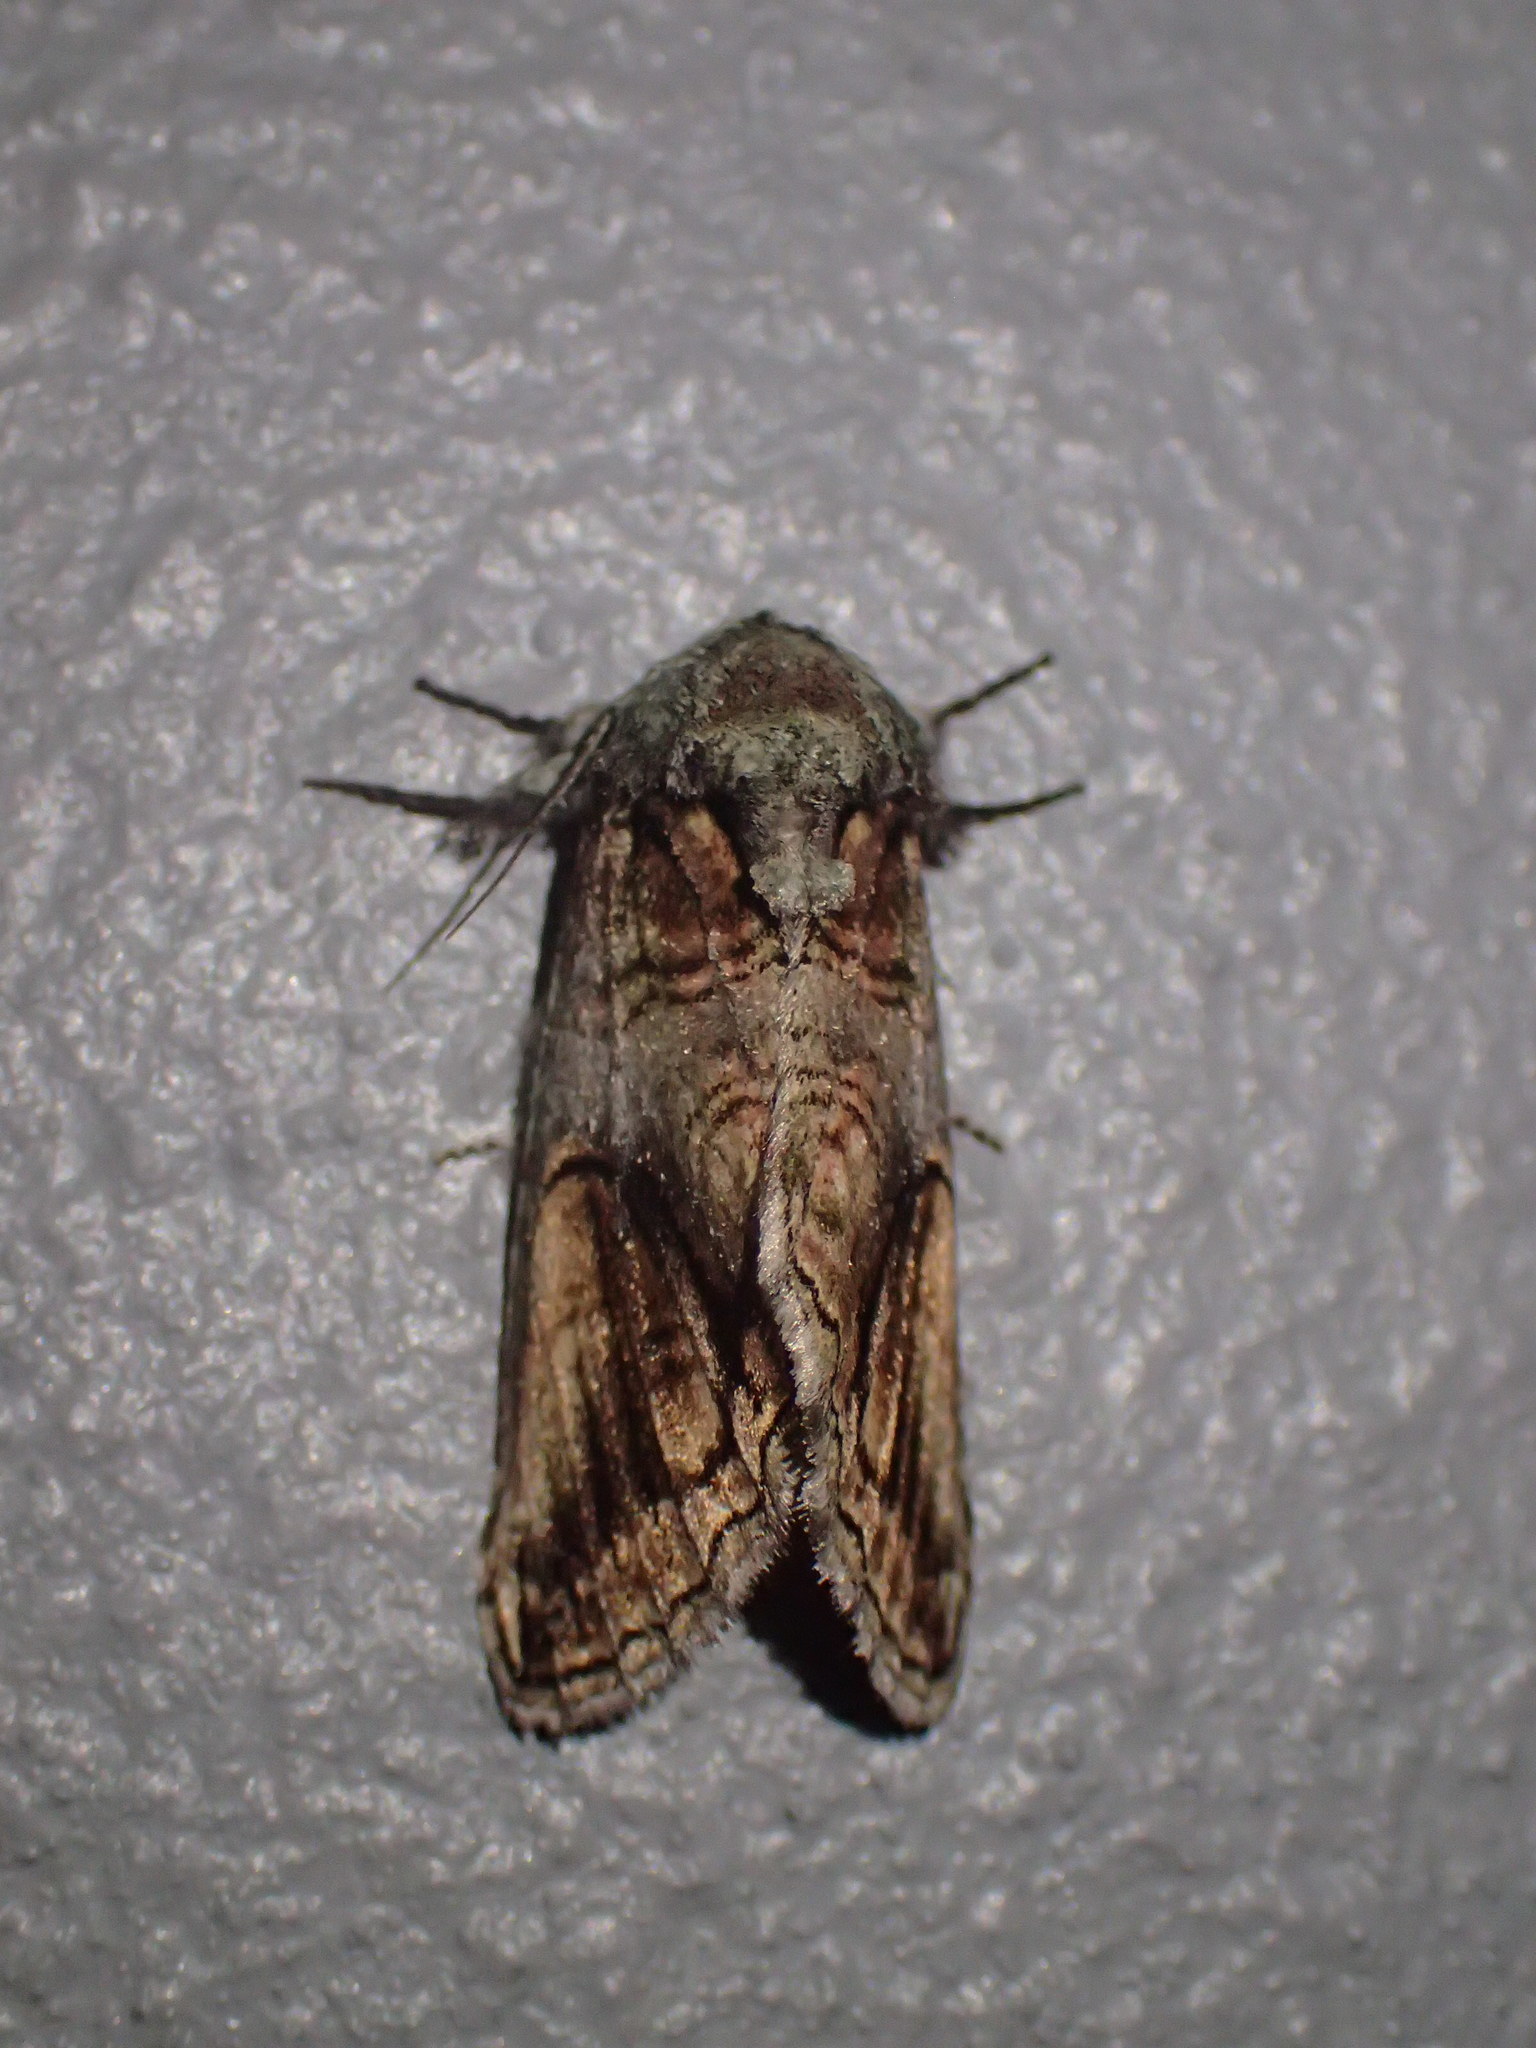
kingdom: Animalia
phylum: Arthropoda
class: Insecta
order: Lepidoptera
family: Notodontidae
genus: Heterocampa
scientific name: Heterocampa obliqua
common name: Oblique heterocampa
